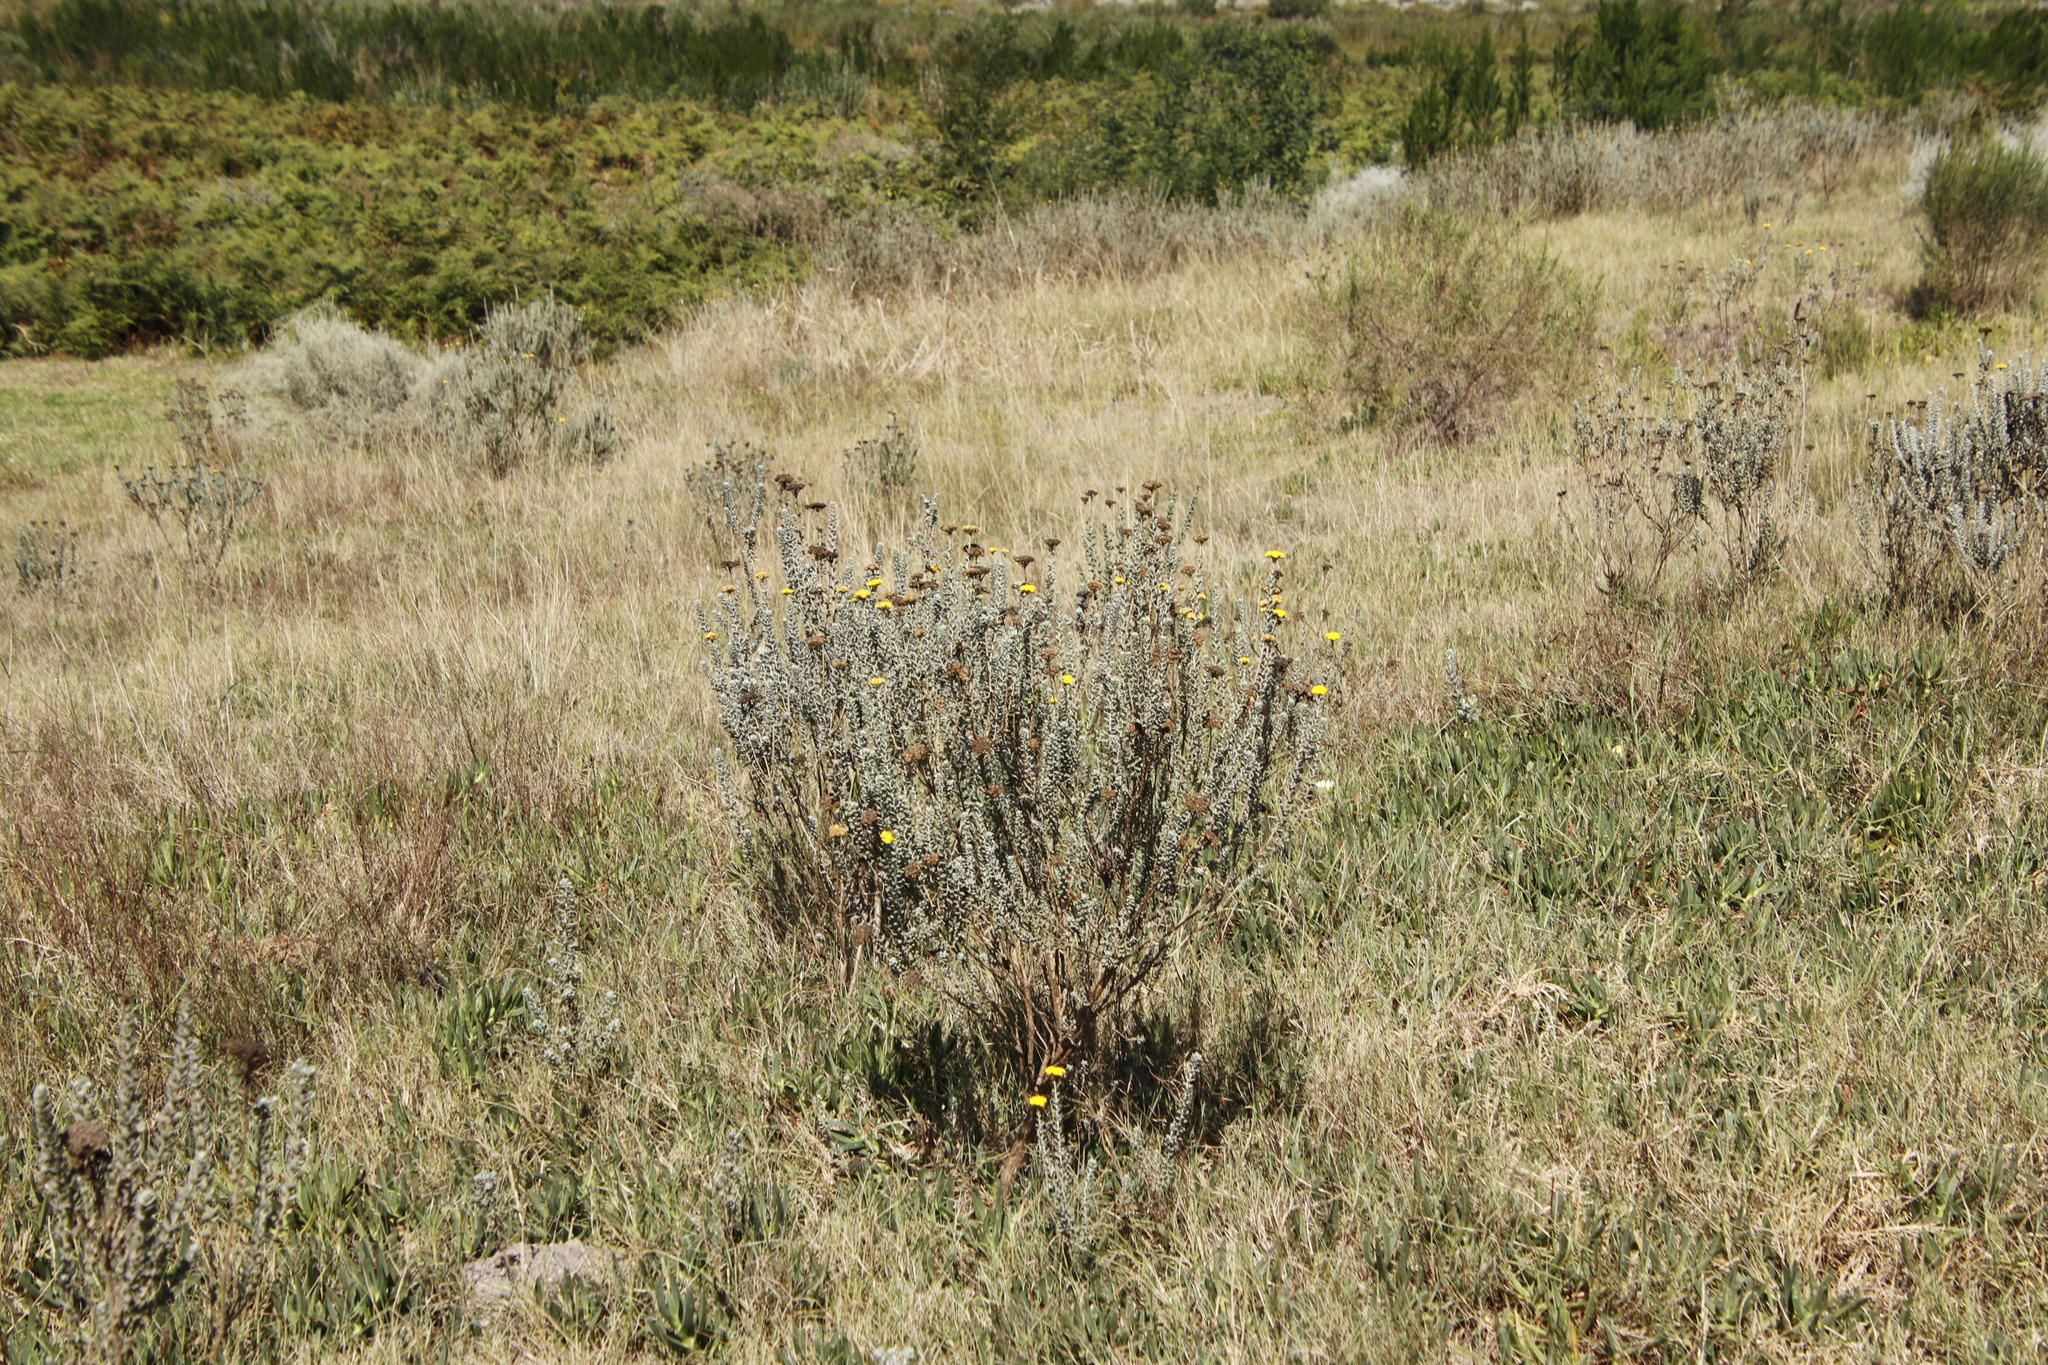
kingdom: Plantae
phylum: Tracheophyta
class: Magnoliopsida
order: Asterales
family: Asteraceae
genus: Athanasia
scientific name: Athanasia trifurcata
